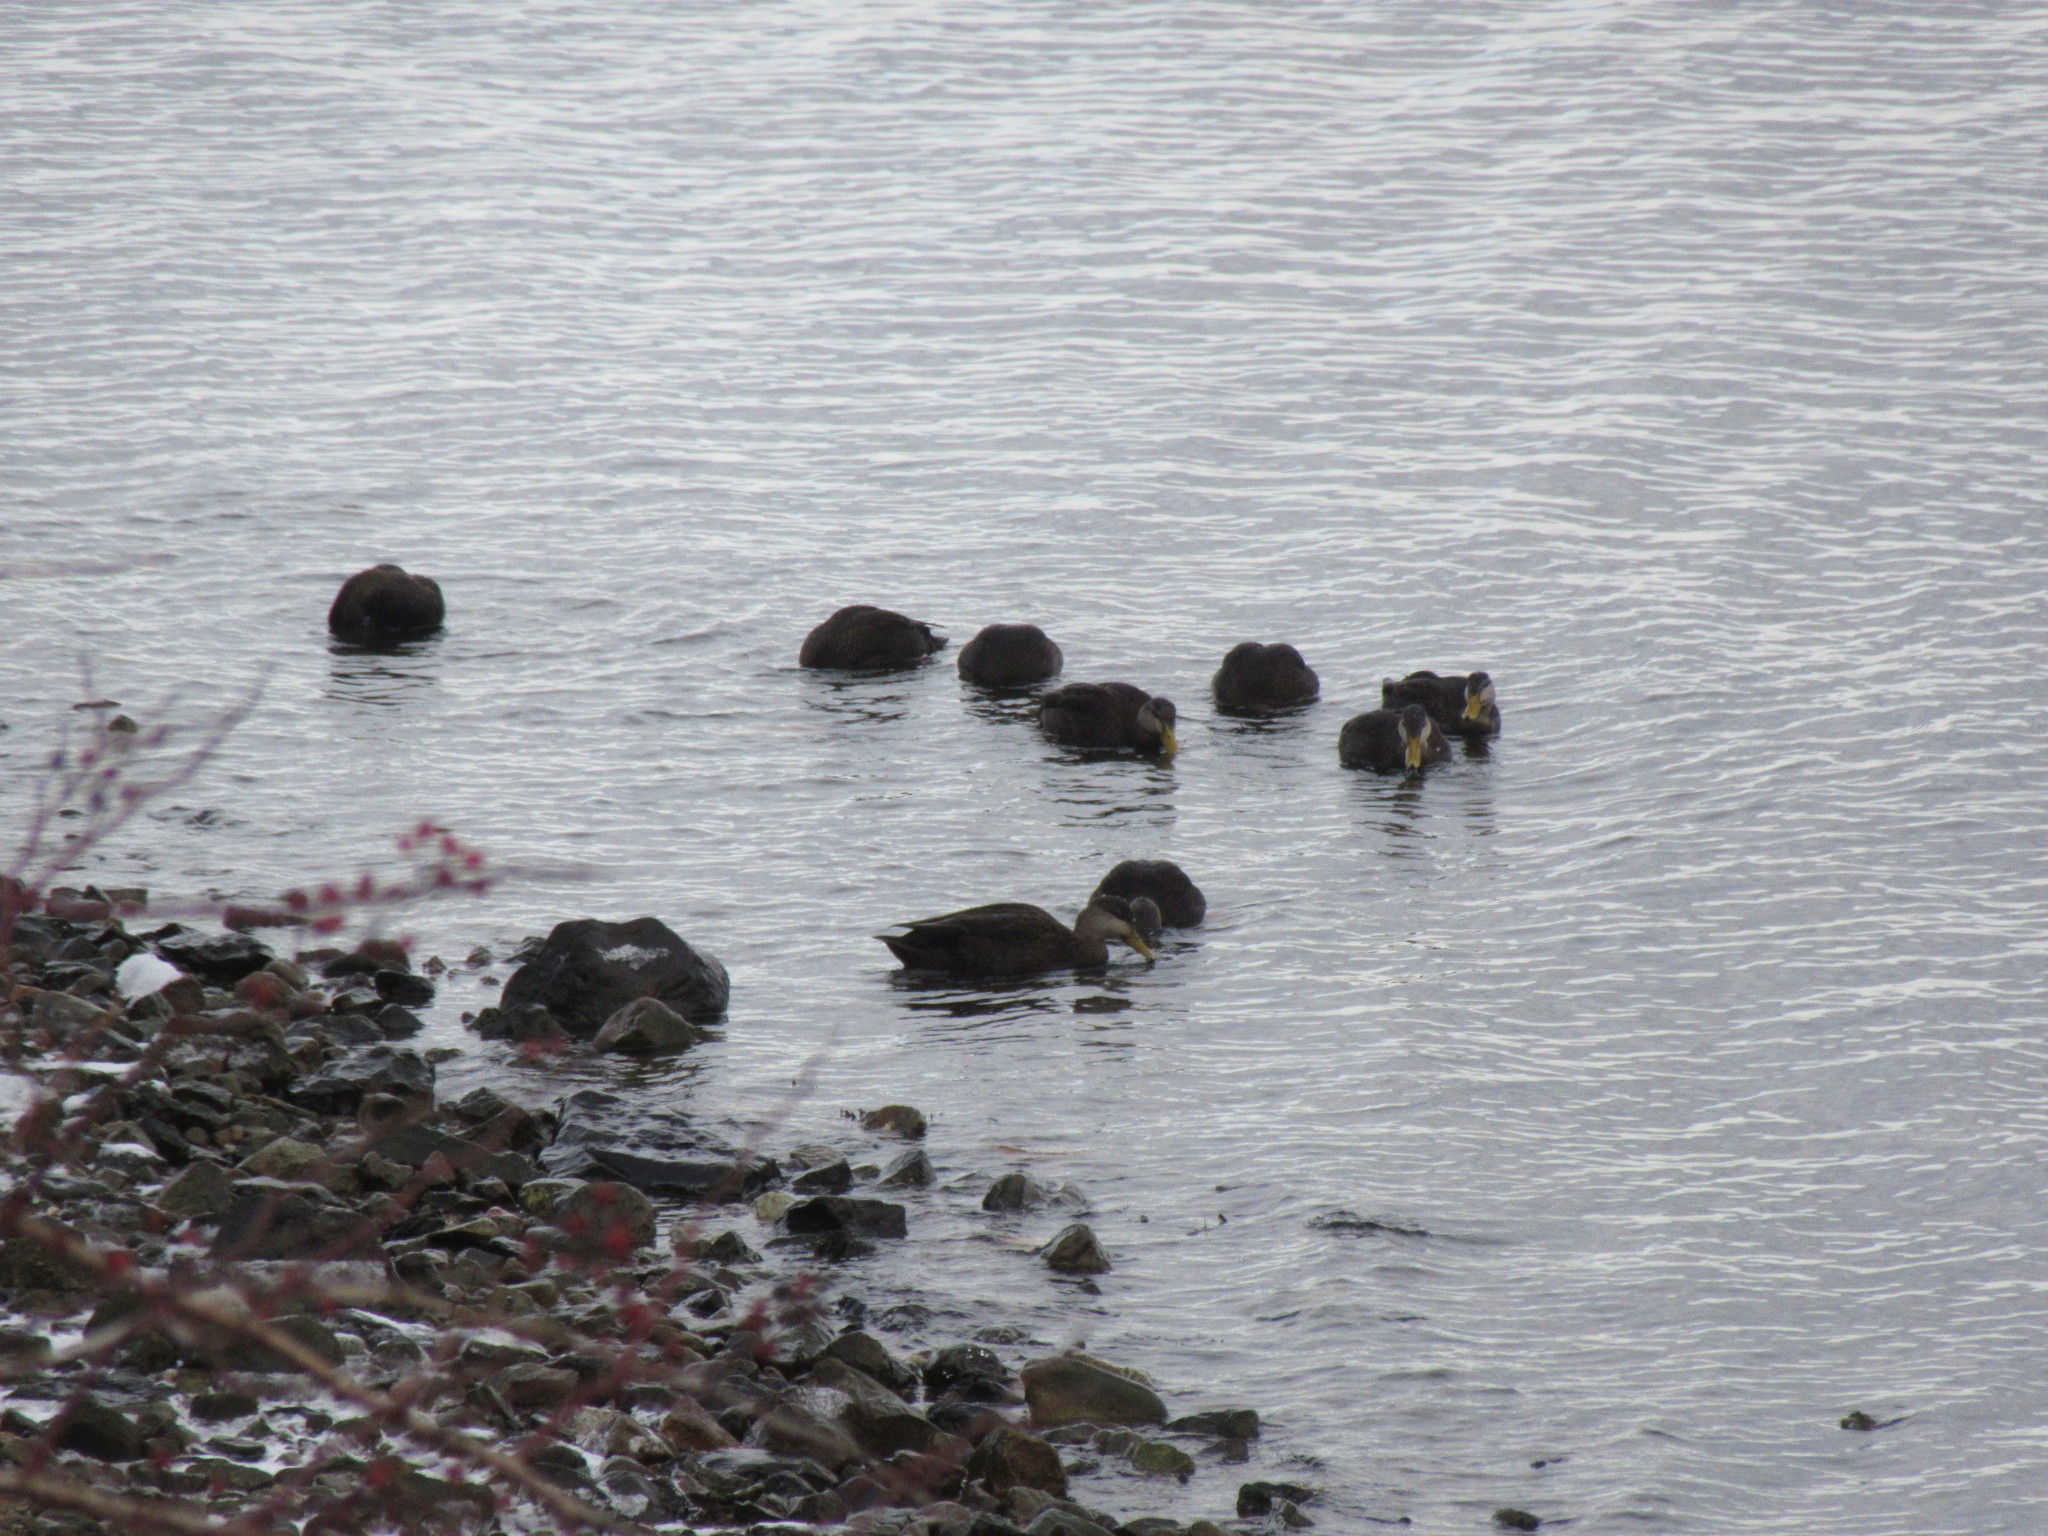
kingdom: Animalia
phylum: Chordata
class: Aves
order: Anseriformes
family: Anatidae
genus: Anas
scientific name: Anas rubripes
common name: American black duck
